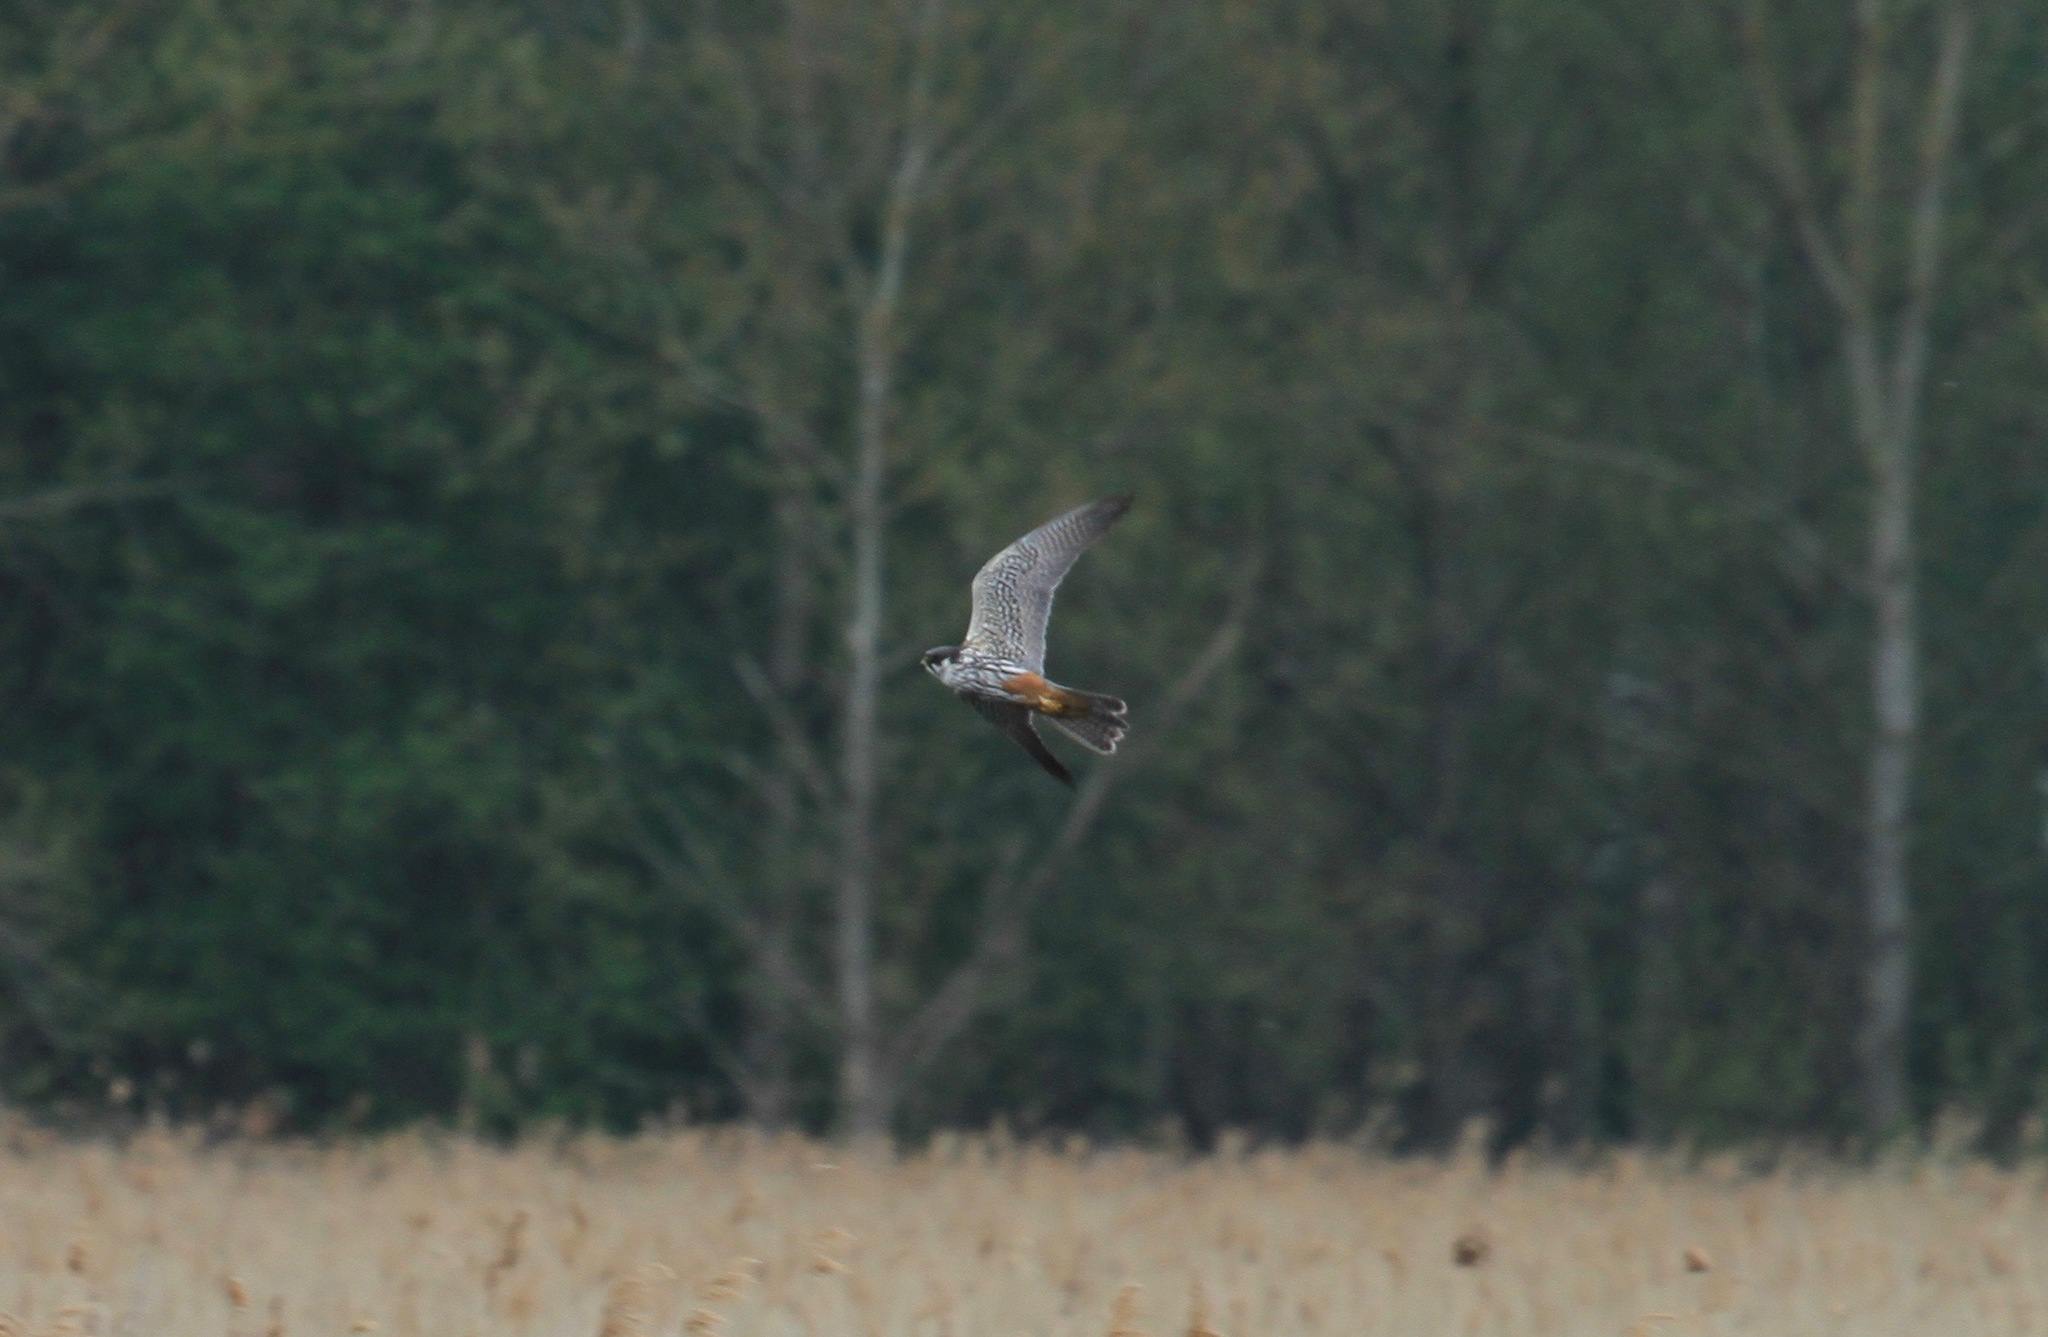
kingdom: Animalia
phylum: Chordata
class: Aves
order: Falconiformes
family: Falconidae
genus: Falco
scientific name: Falco subbuteo
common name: Eurasian hobby
